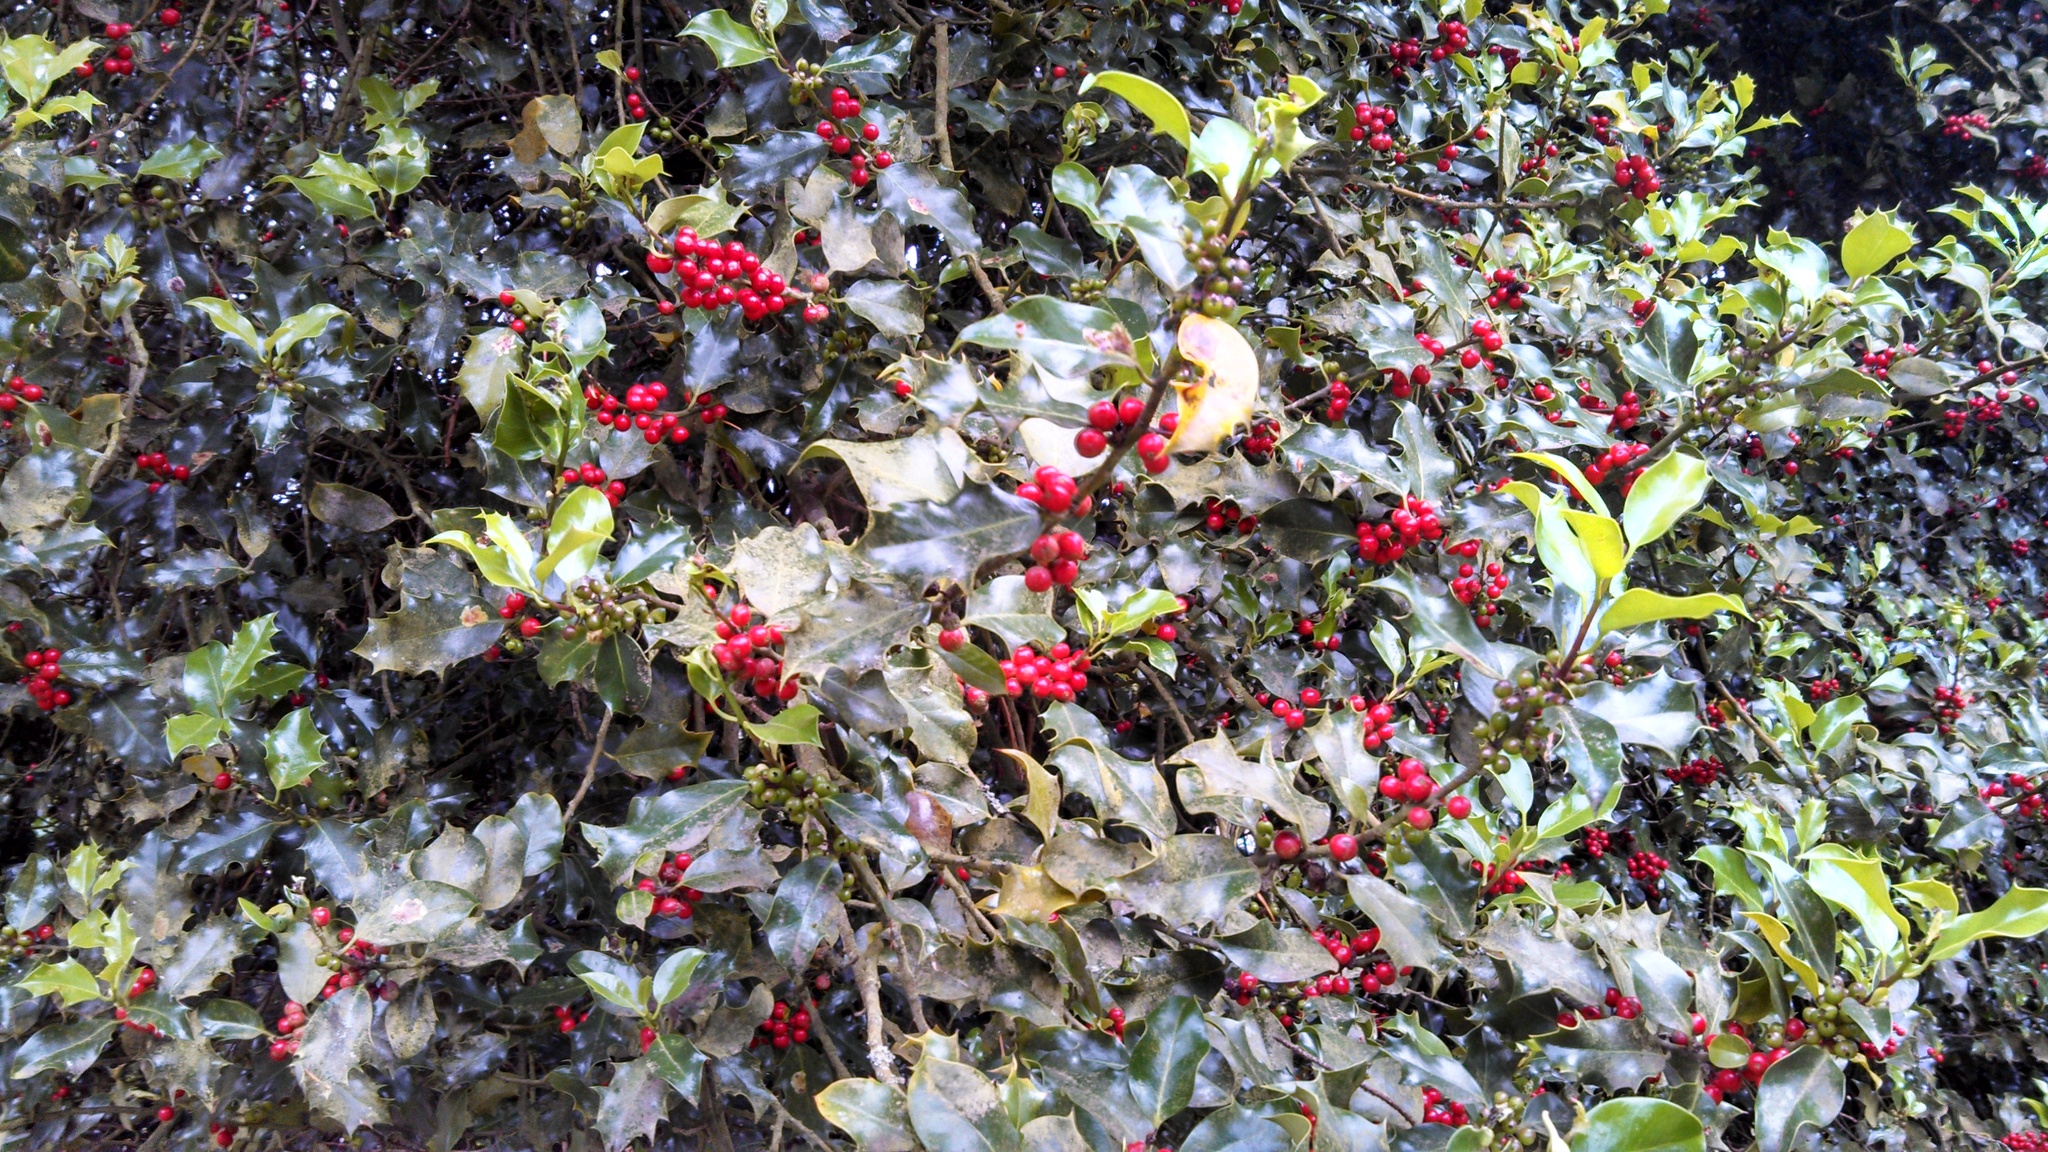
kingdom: Plantae
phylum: Tracheophyta
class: Magnoliopsida
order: Aquifoliales
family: Aquifoliaceae
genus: Ilex
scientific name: Ilex aquifolium
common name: English holly
